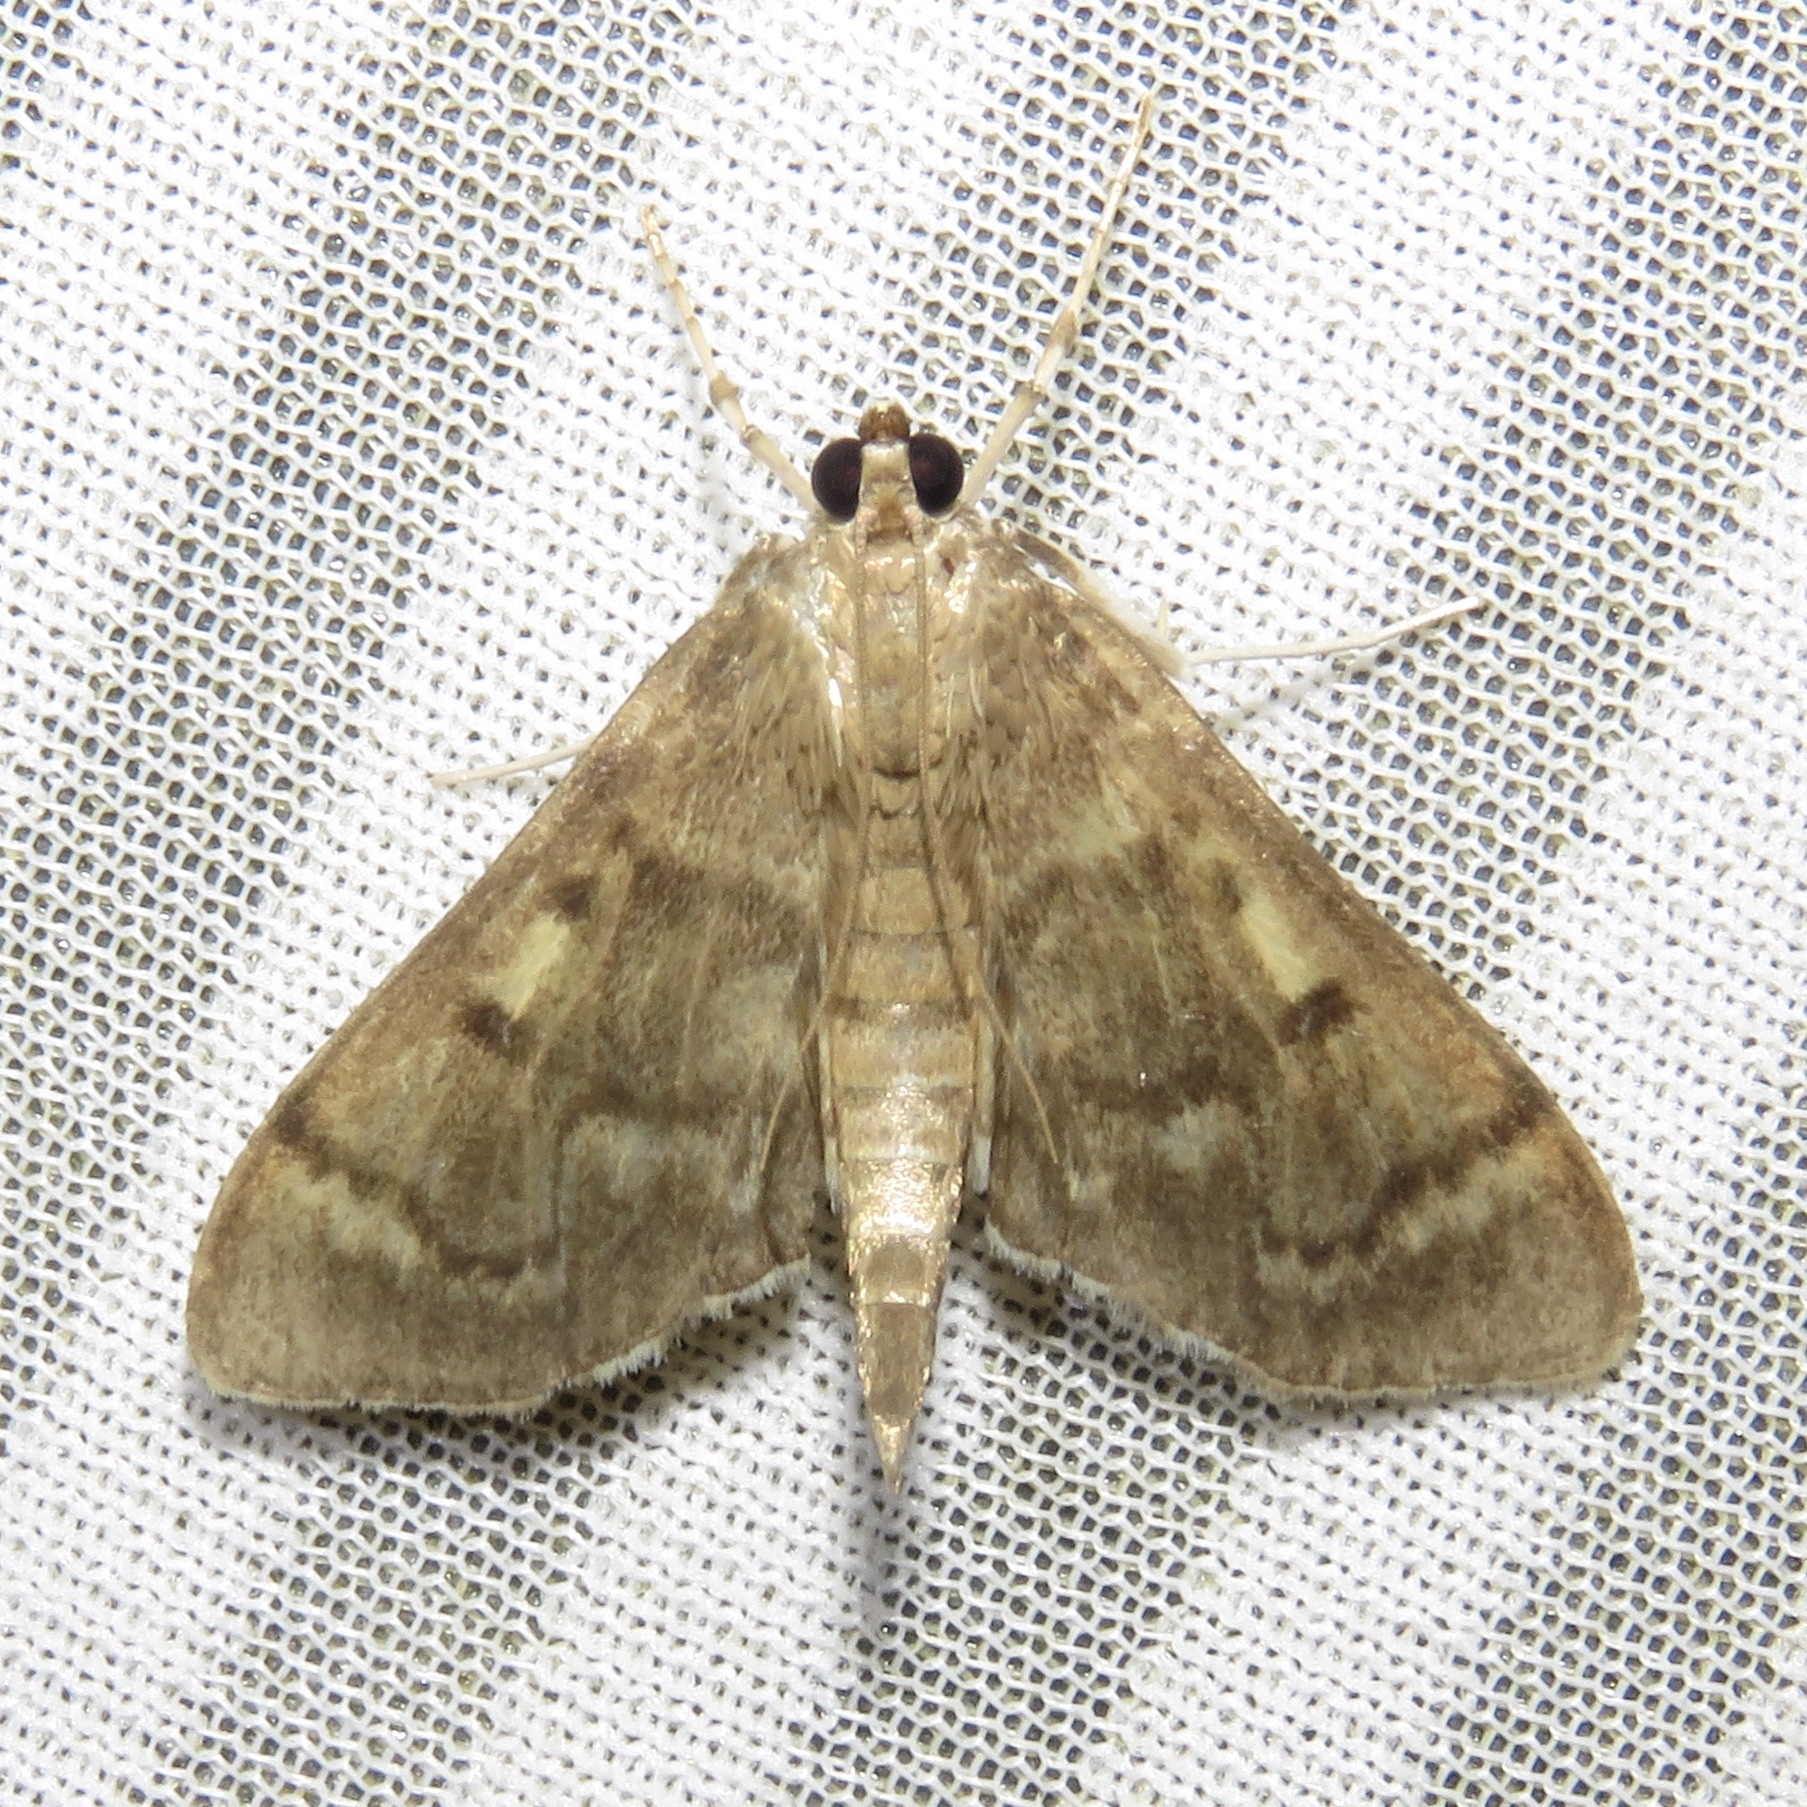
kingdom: Animalia
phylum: Arthropoda
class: Insecta
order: Lepidoptera
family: Crambidae
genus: Herpetogramma
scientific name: Herpetogramma aeglealis
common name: Serpentine webworm moth
